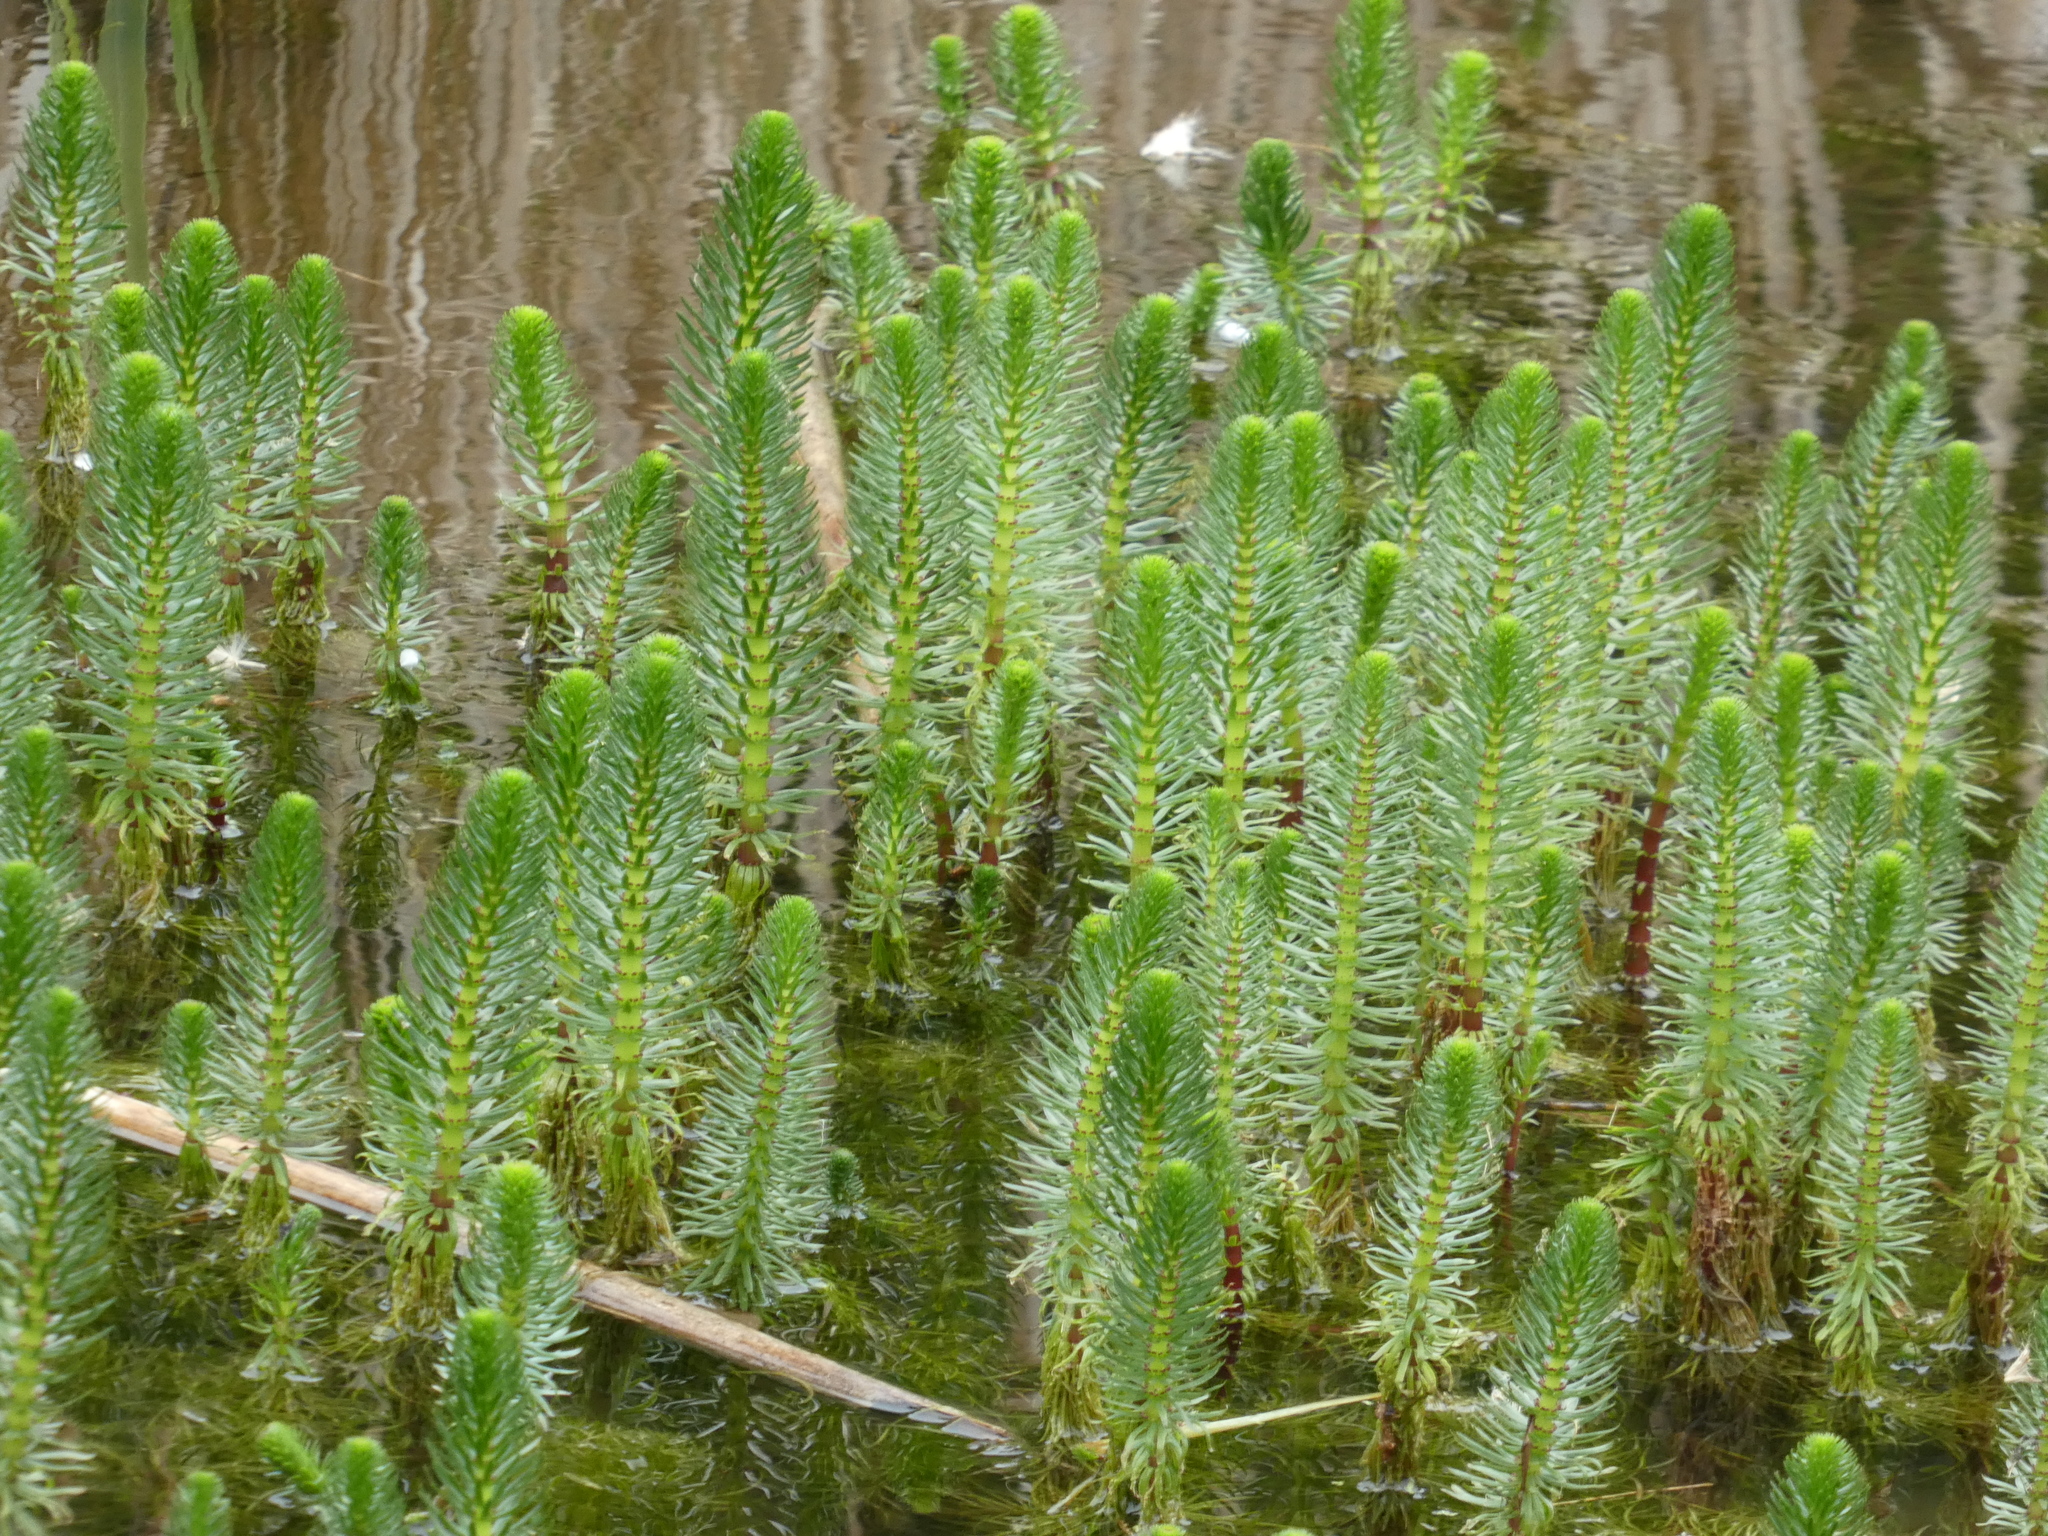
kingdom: Plantae
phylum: Tracheophyta
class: Magnoliopsida
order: Lamiales
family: Plantaginaceae
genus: Hippuris
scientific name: Hippuris vulgaris
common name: Mare's-tail
